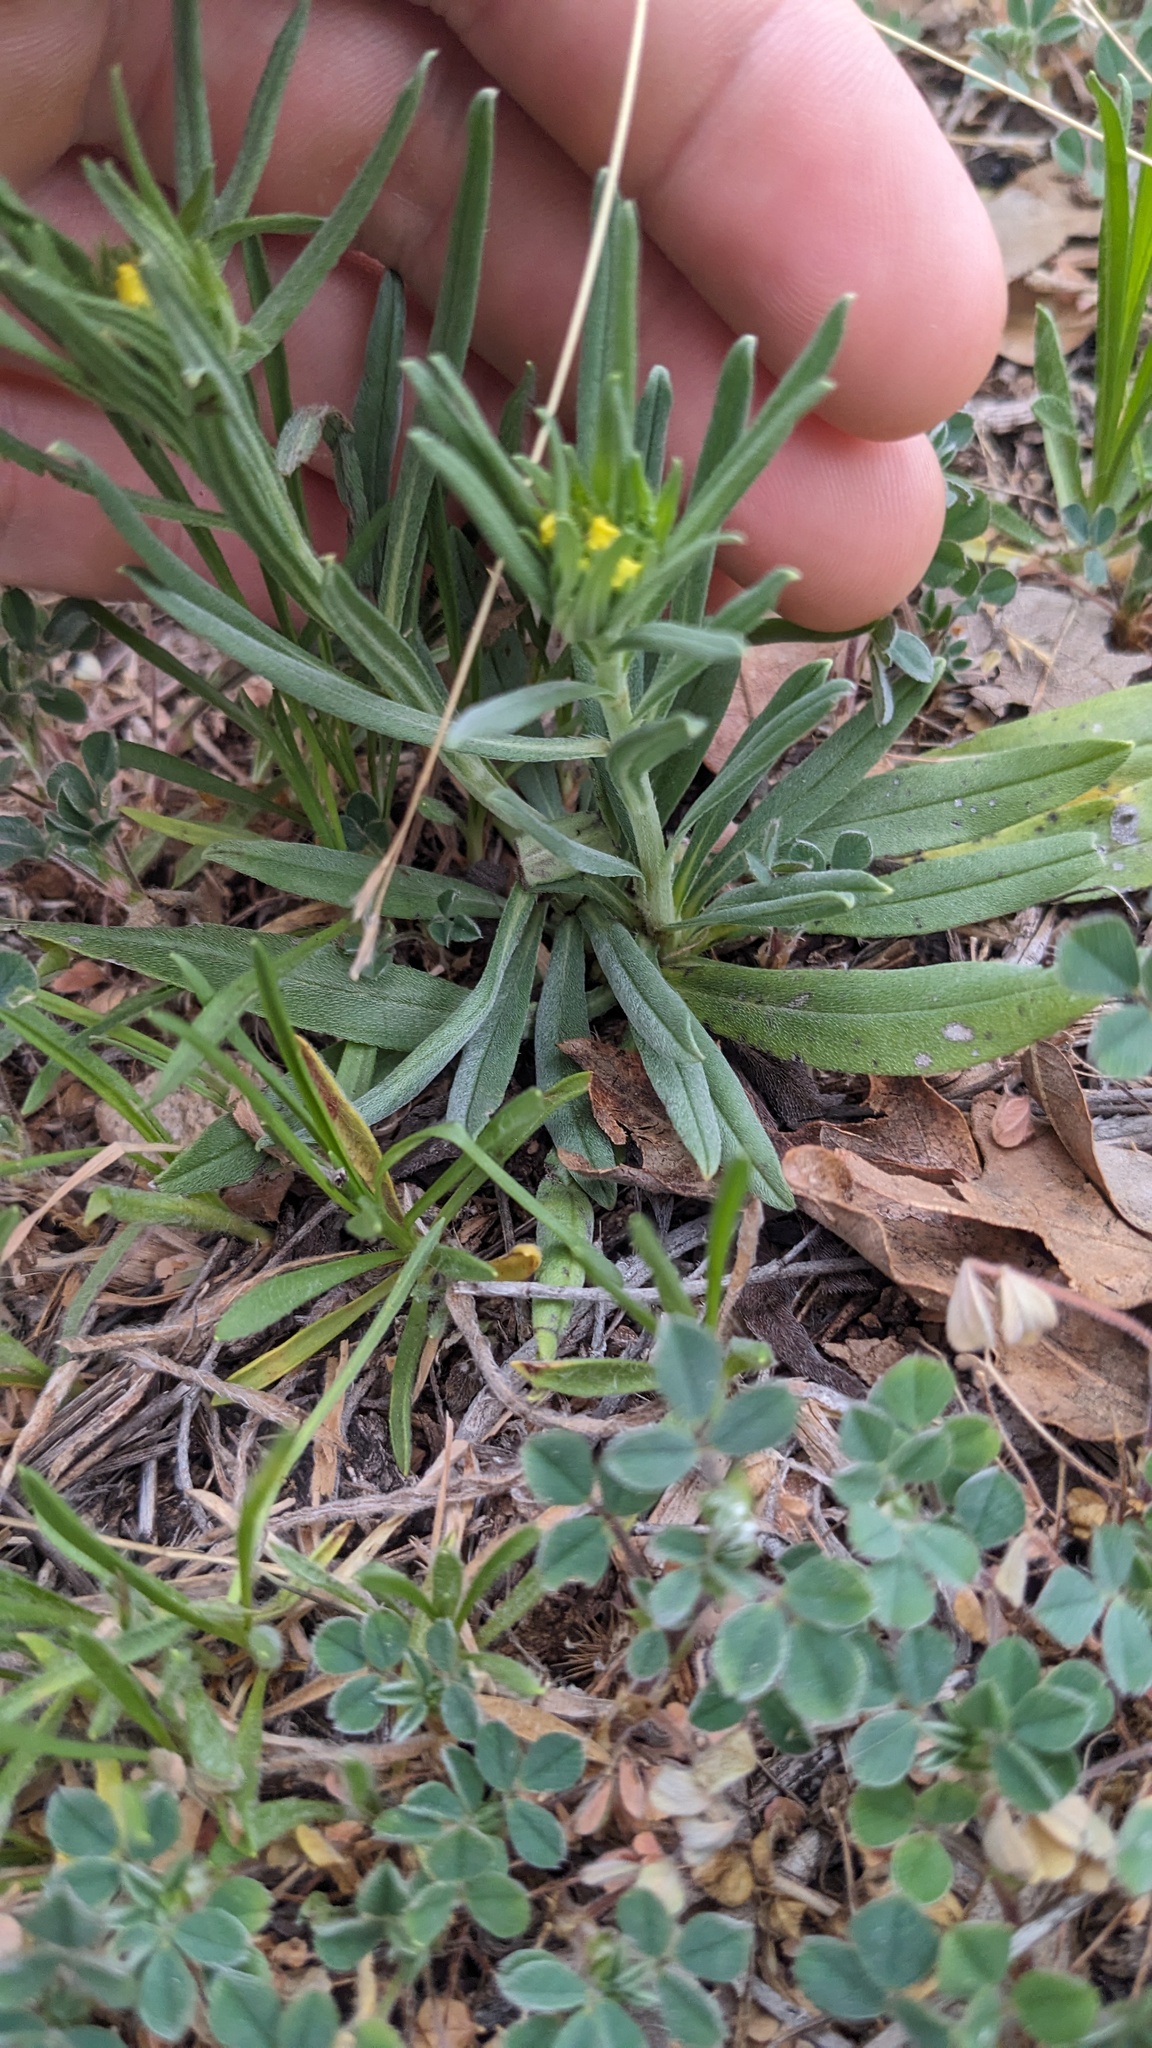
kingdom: Plantae
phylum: Tracheophyta
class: Magnoliopsida
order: Boraginales
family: Boraginaceae
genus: Lithospermum
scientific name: Lithospermum incisum
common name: Fringed gromwell
